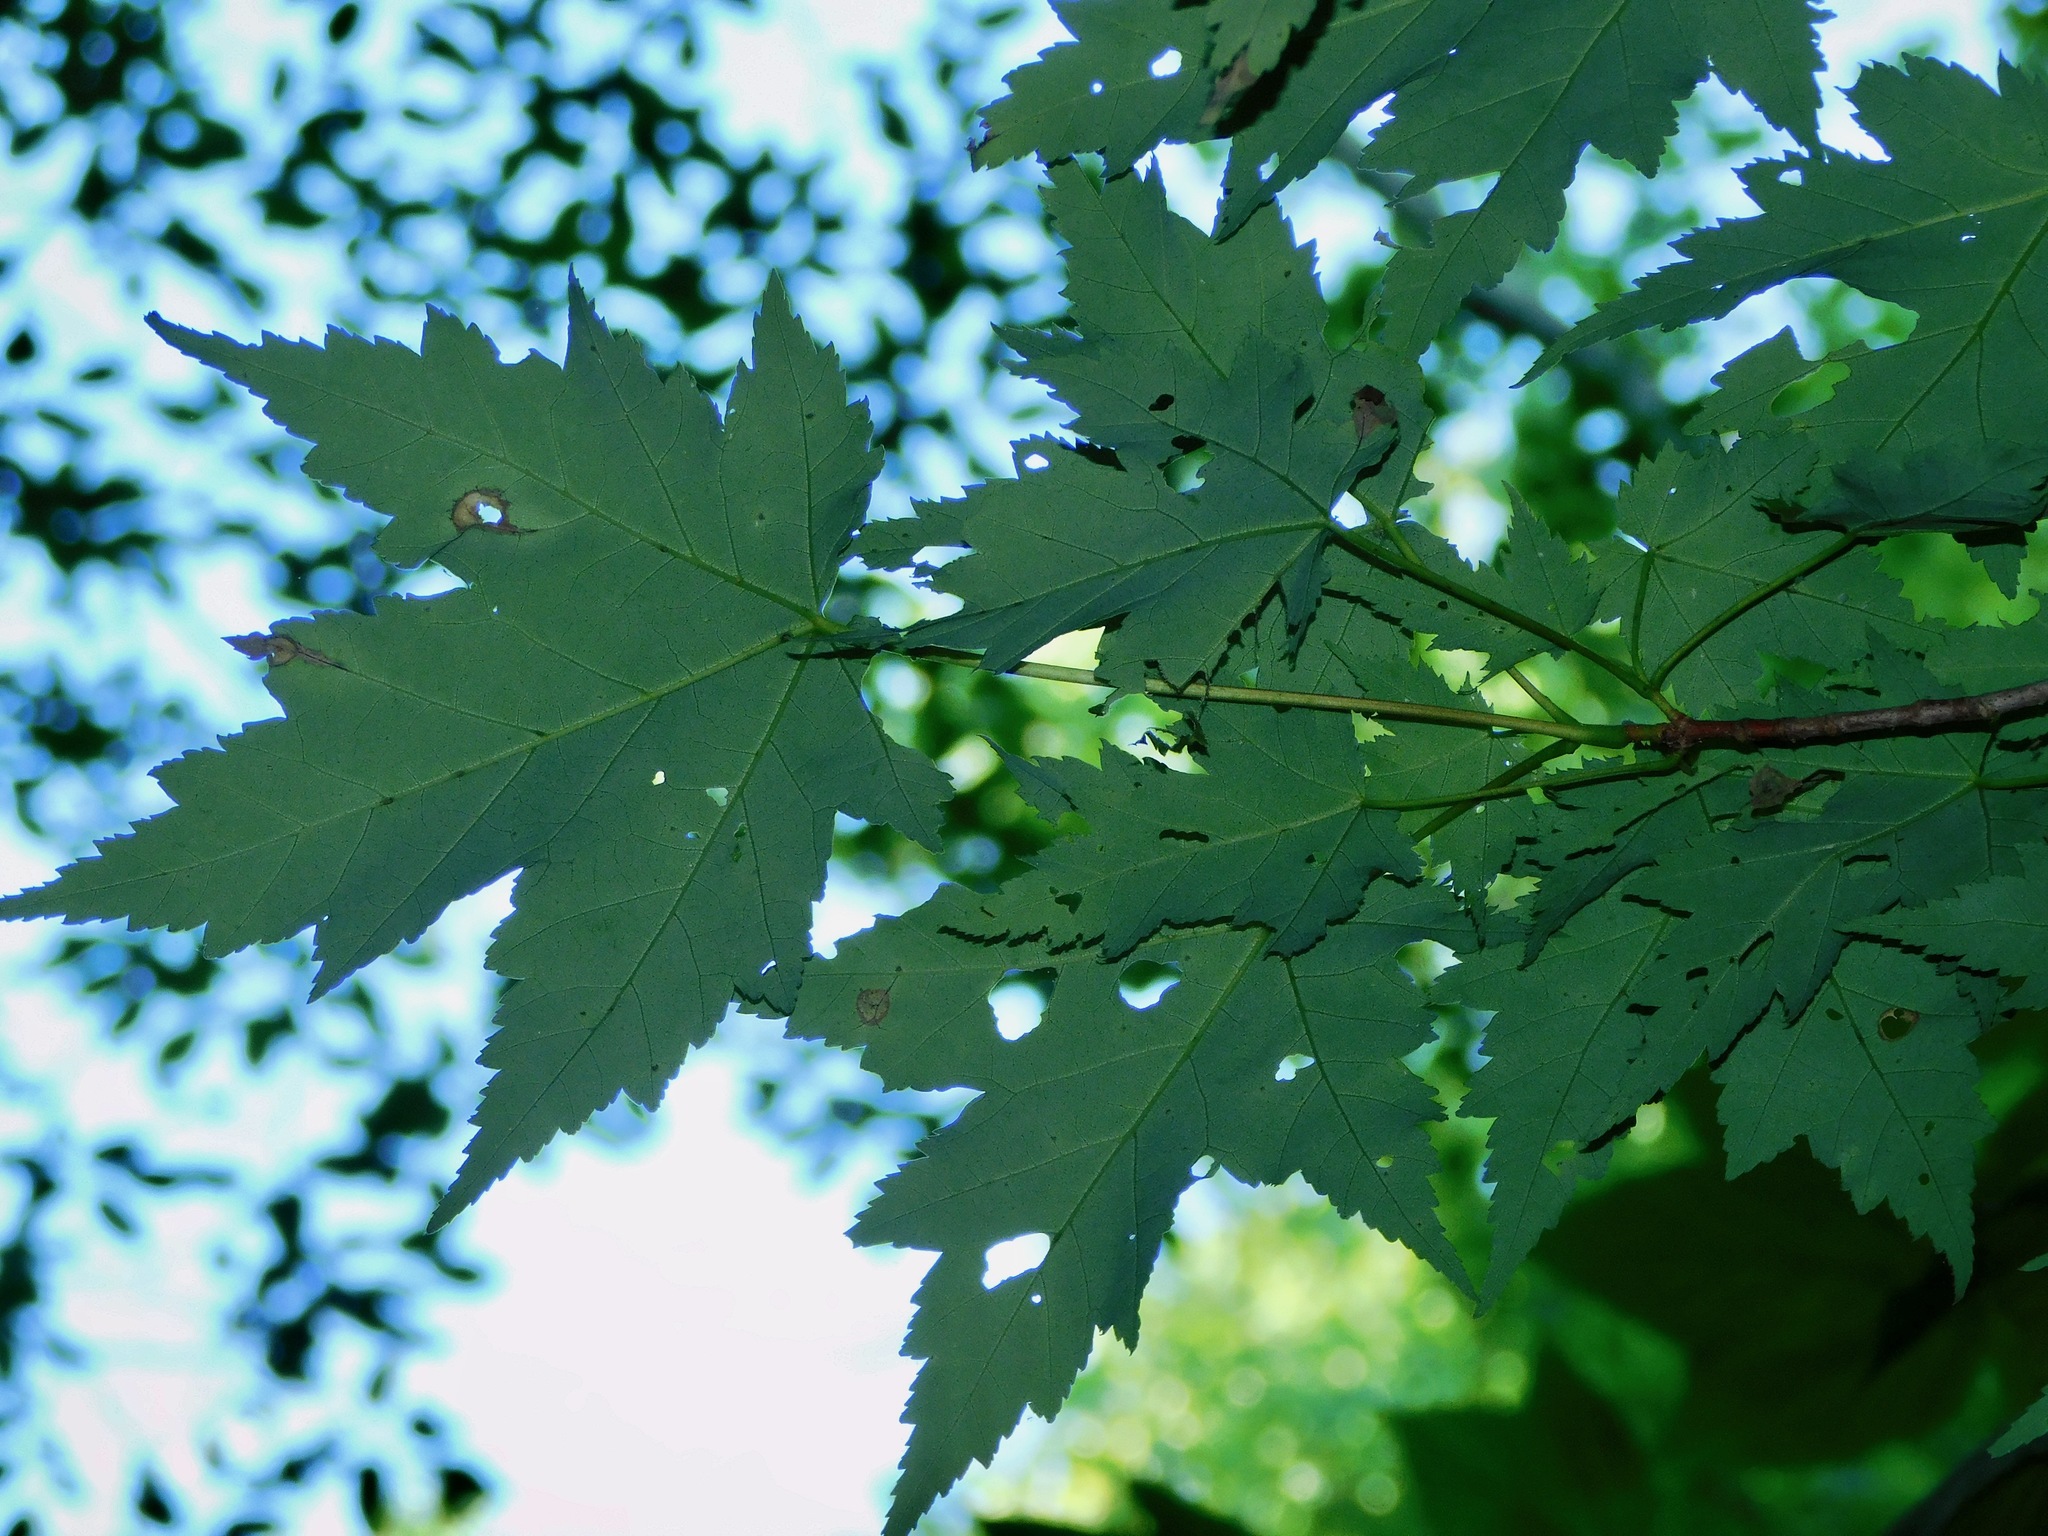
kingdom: Plantae
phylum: Tracheophyta
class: Magnoliopsida
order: Sapindales
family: Sapindaceae
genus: Acer
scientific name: Acer freemanii
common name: Freeman maple
